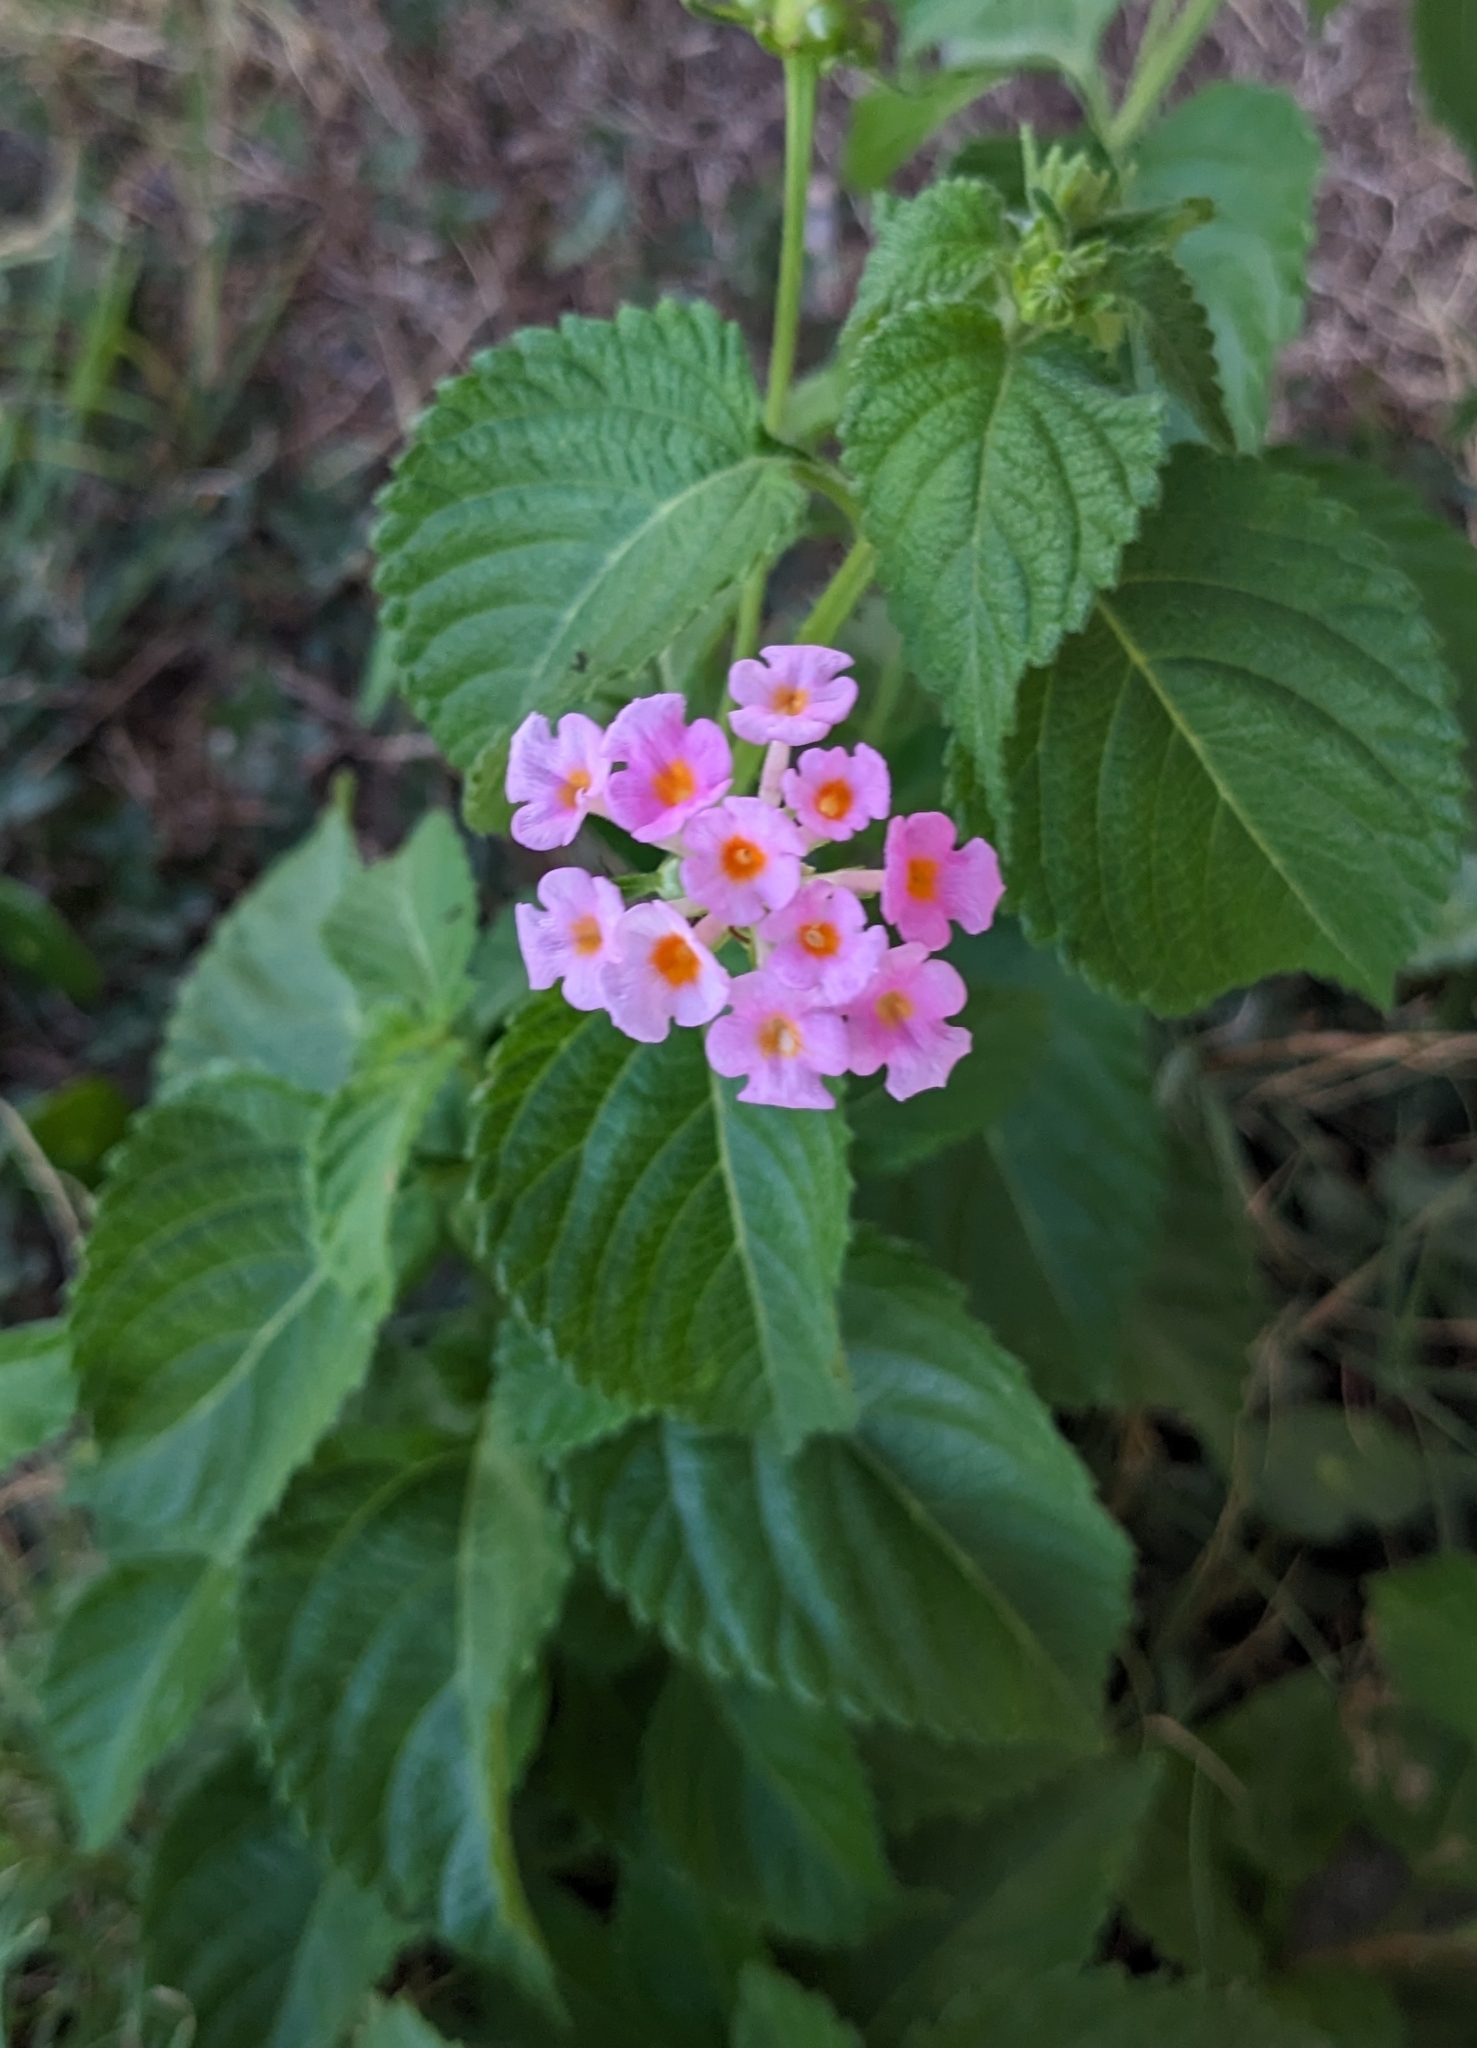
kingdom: Plantae
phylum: Tracheophyta
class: Magnoliopsida
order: Lamiales
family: Verbenaceae
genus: Lantana
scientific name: Lantana strigocamara
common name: Lantana
